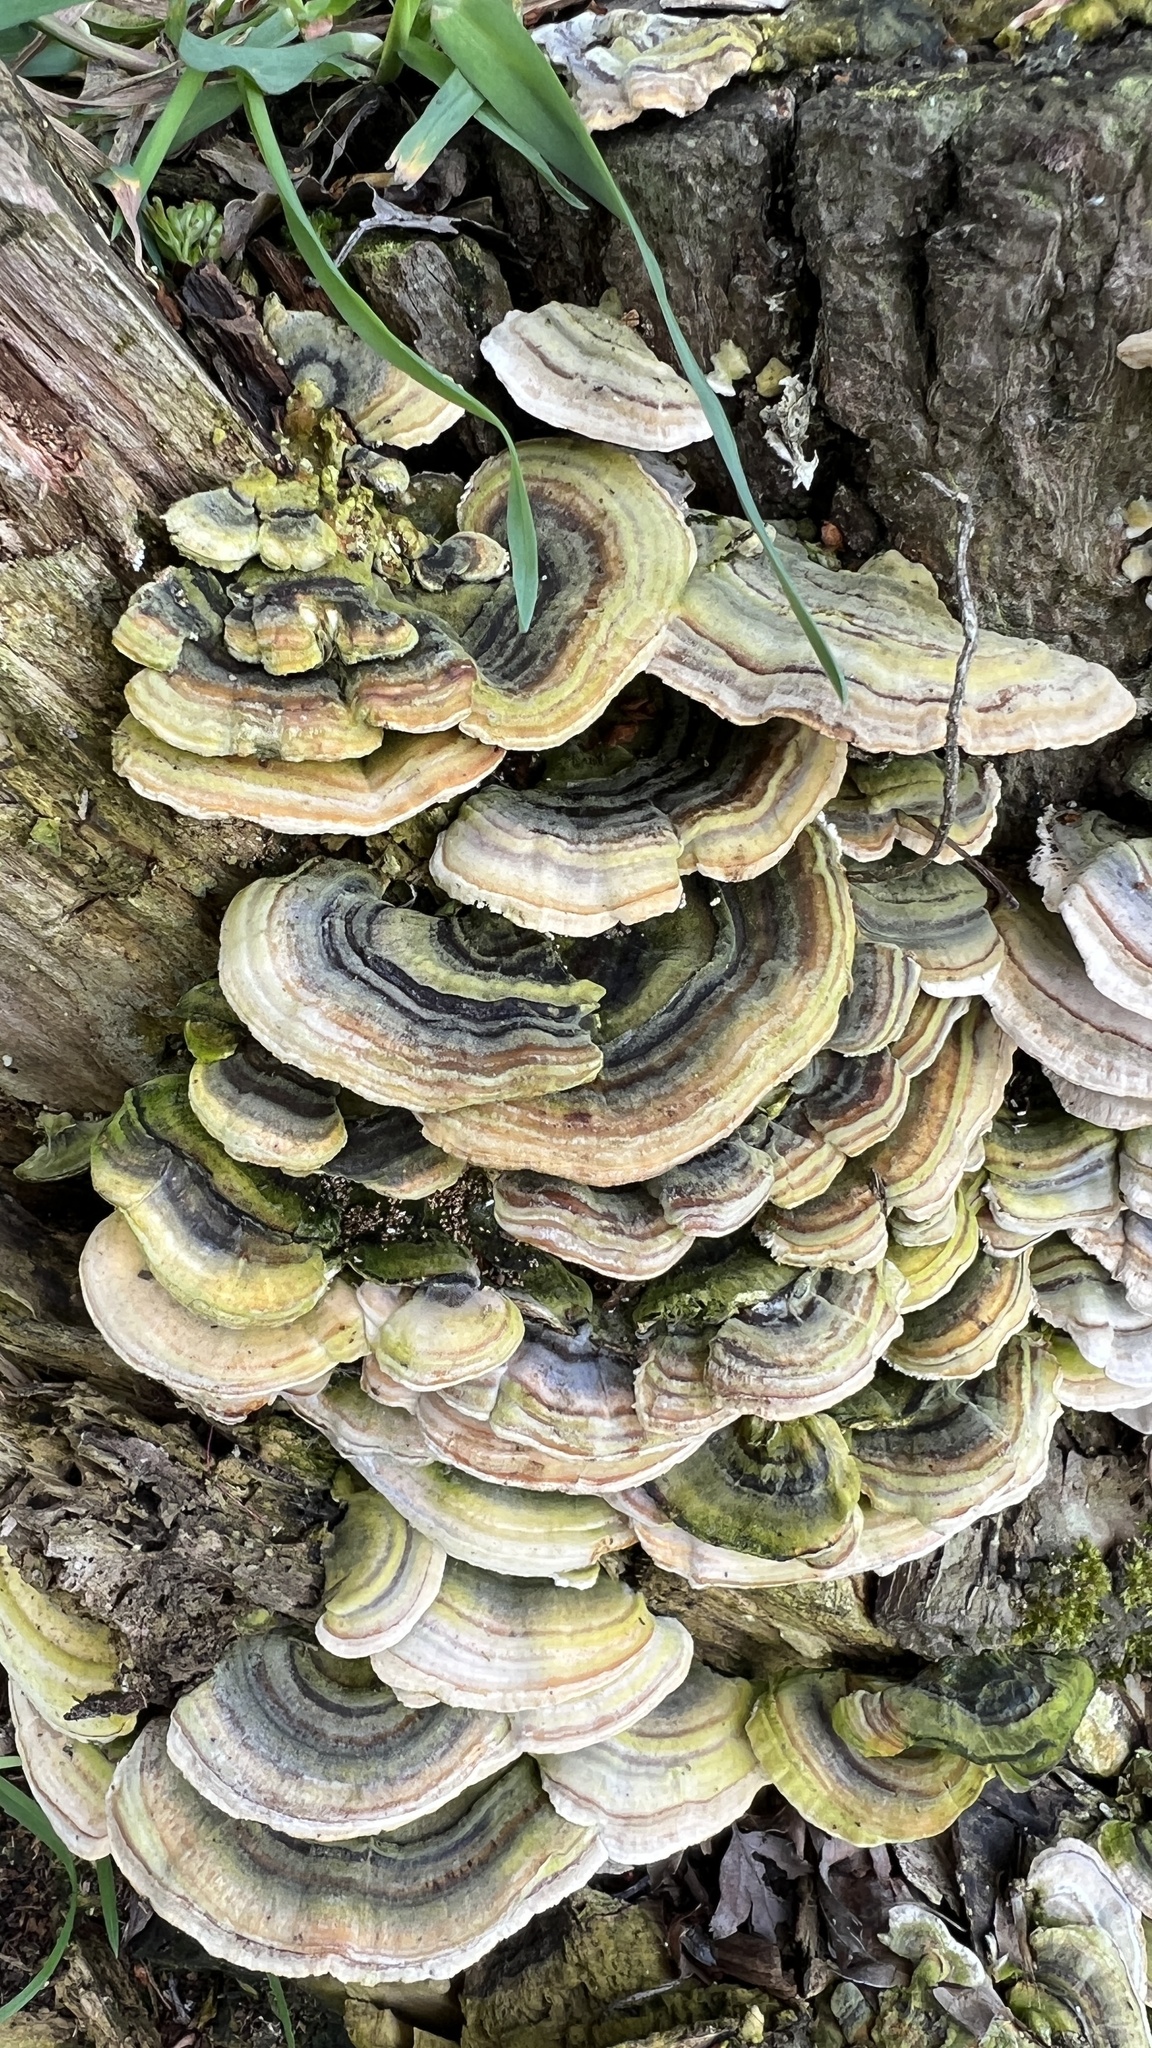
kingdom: Fungi
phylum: Basidiomycota
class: Agaricomycetes
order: Polyporales
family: Polyporaceae
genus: Trametes
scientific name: Trametes versicolor
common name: Turkeytail
